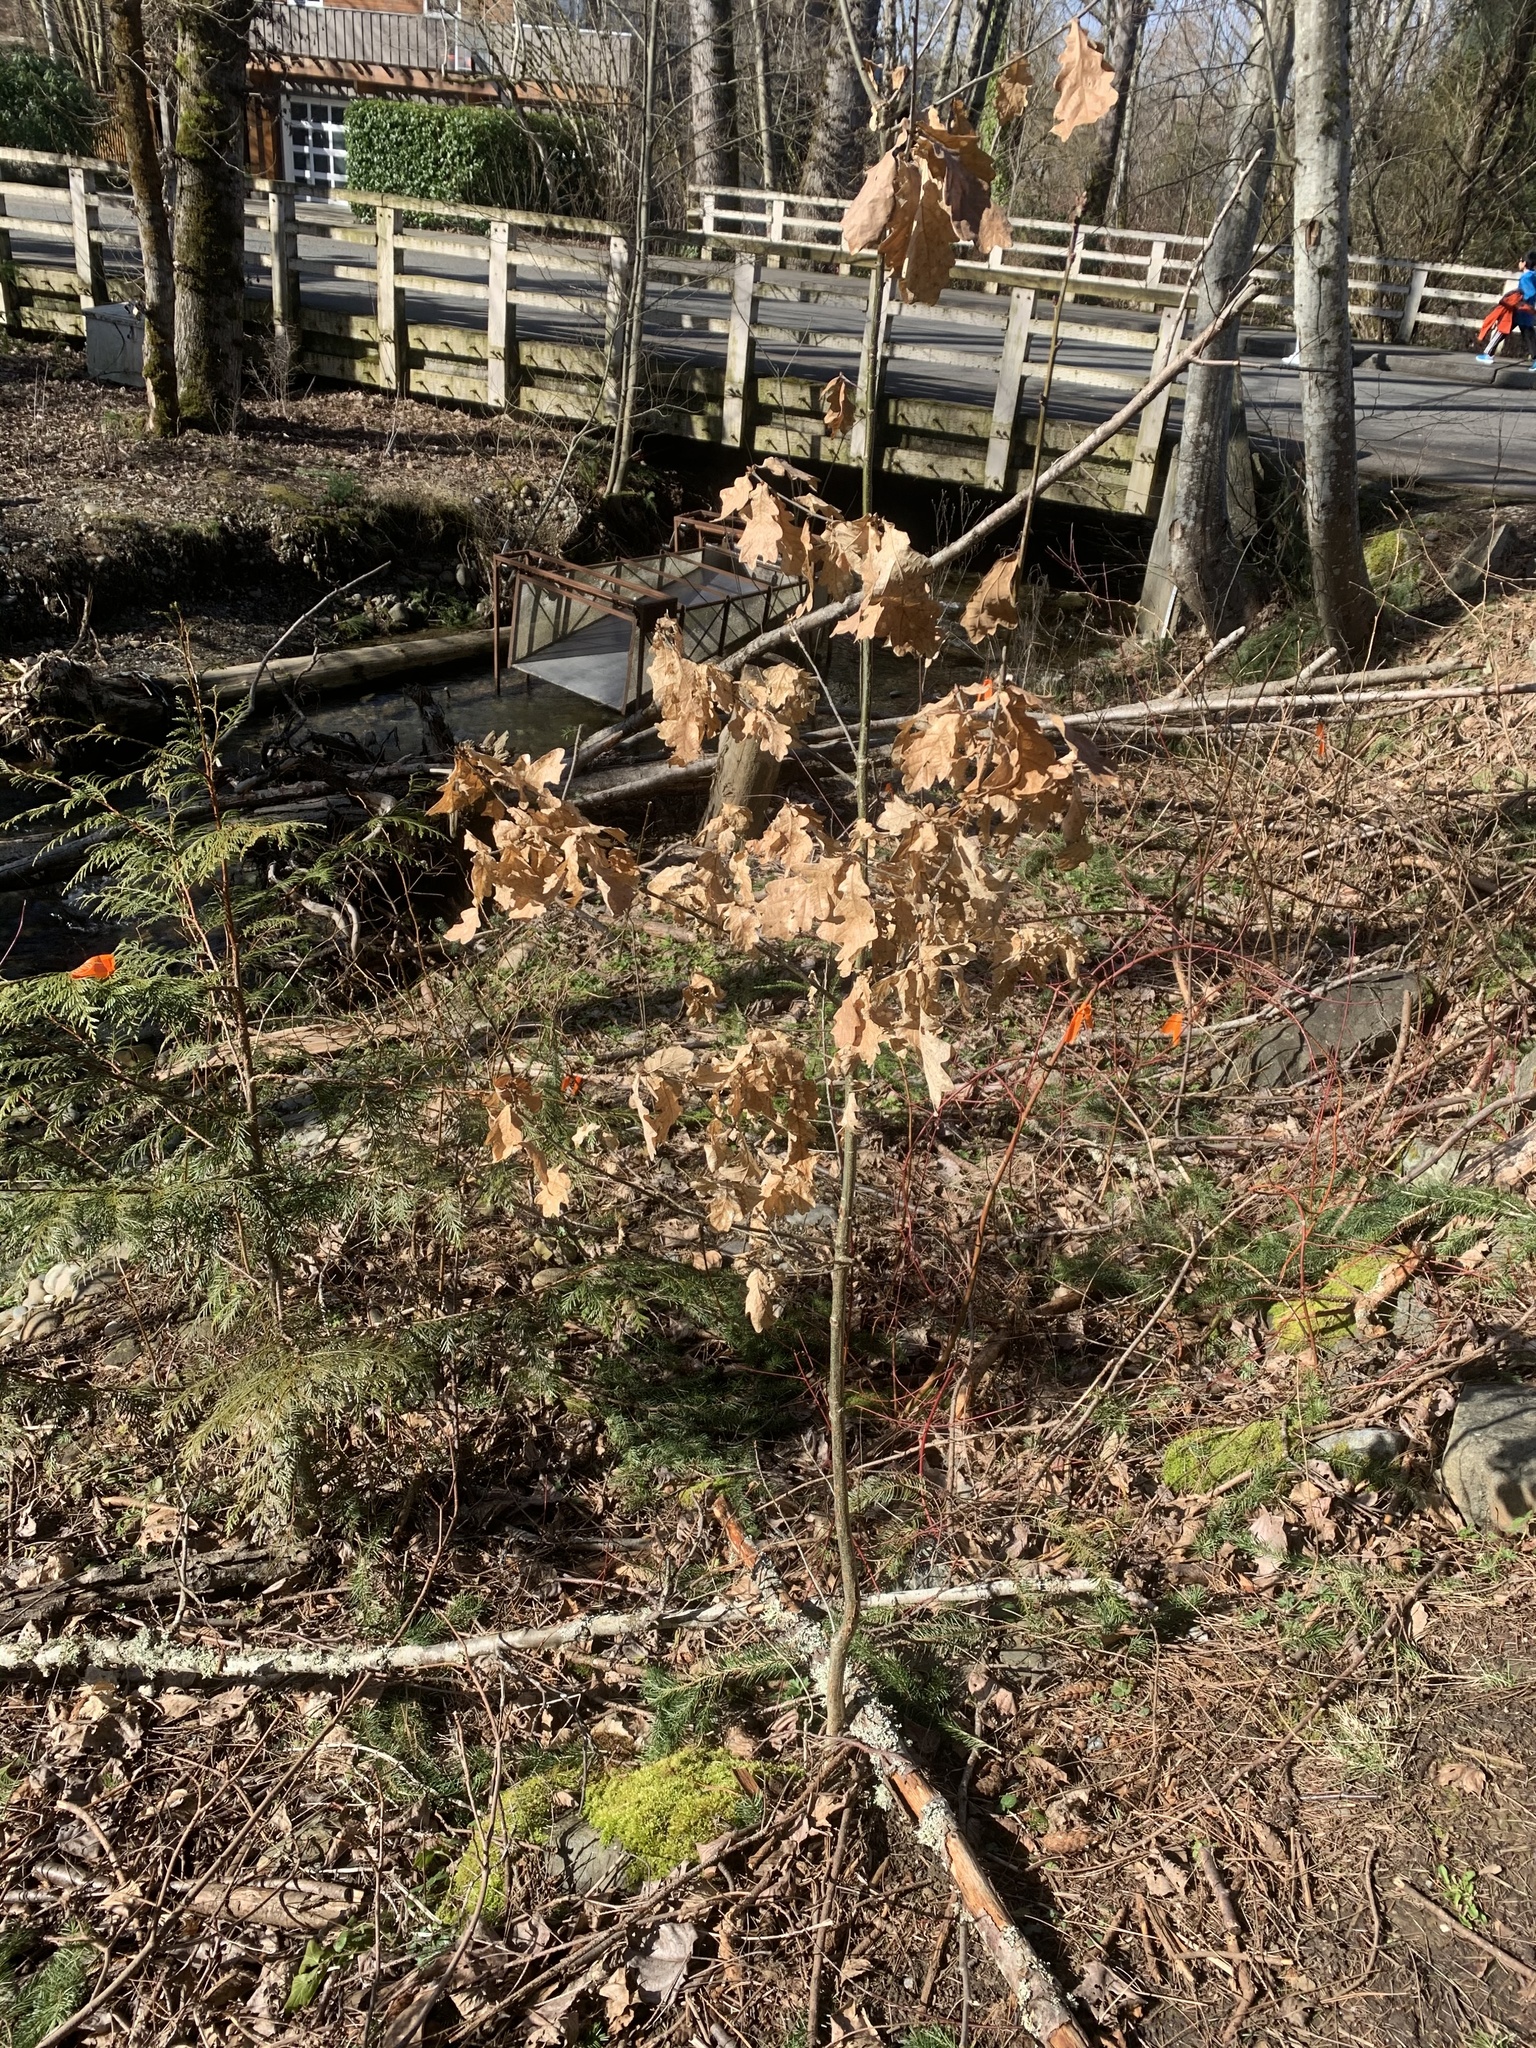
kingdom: Plantae
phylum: Tracheophyta
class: Magnoliopsida
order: Fagales
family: Fagaceae
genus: Quercus
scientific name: Quercus robur
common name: Pedunculate oak
